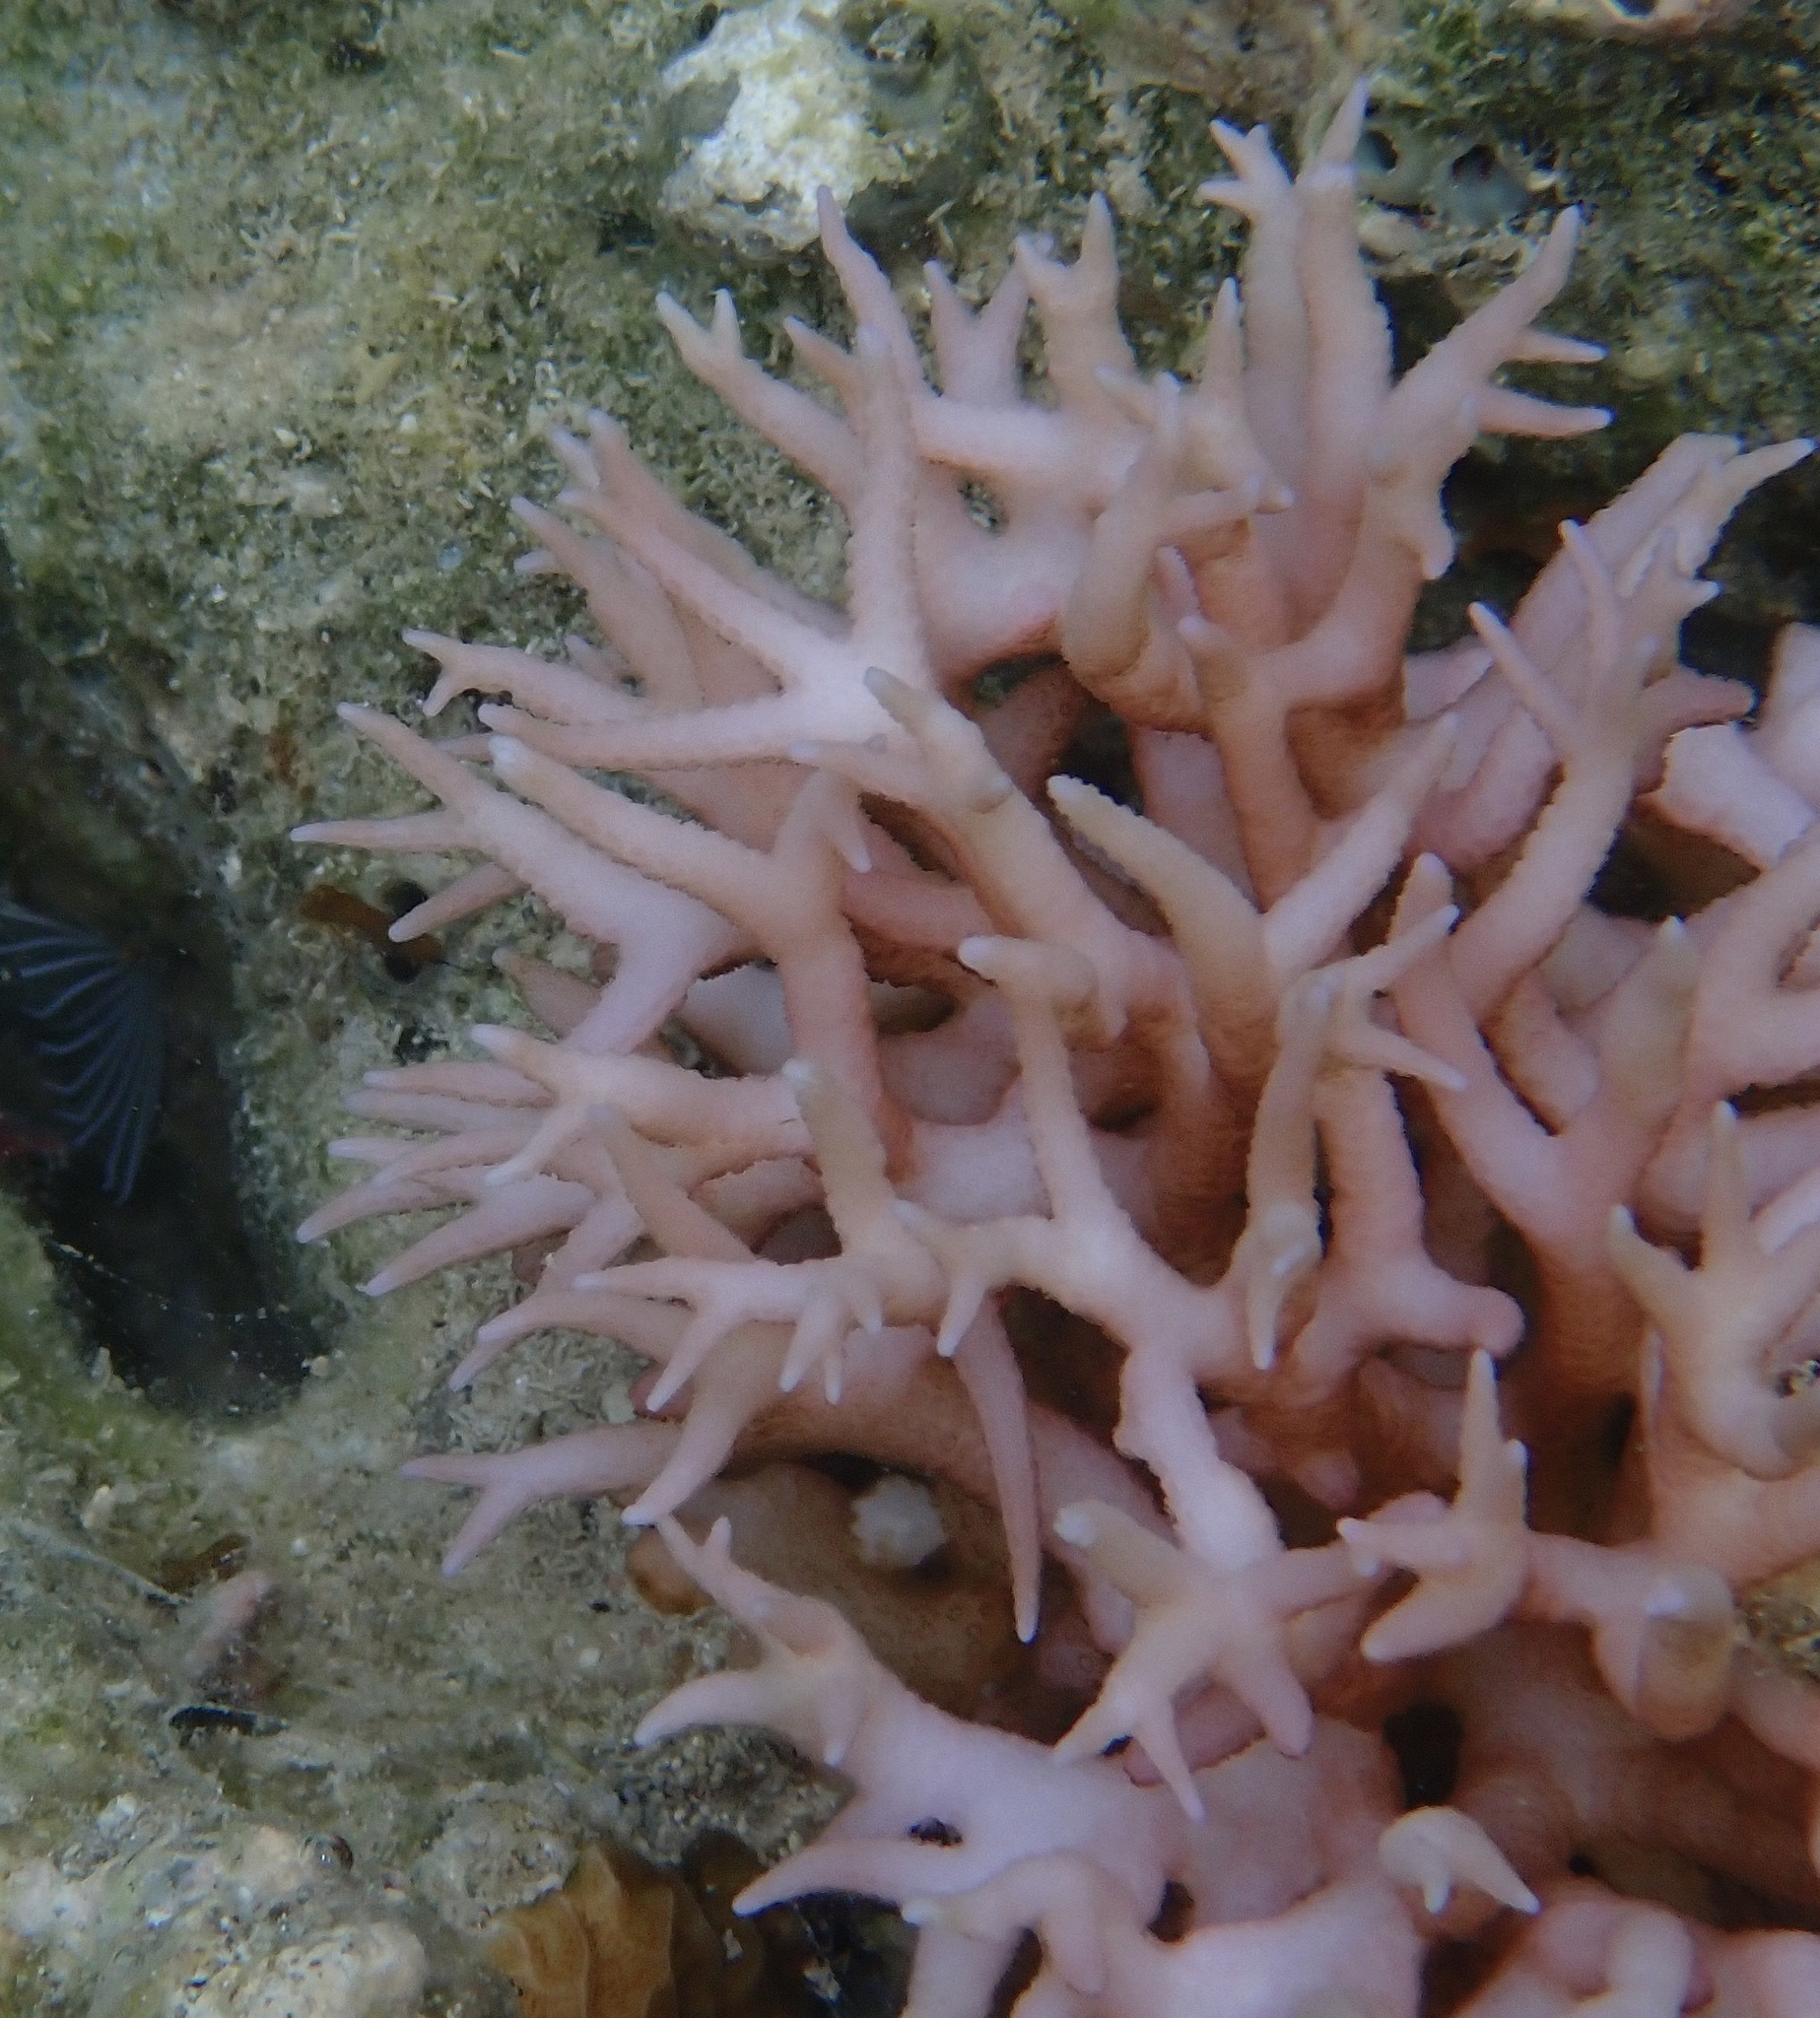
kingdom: Animalia
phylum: Cnidaria
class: Anthozoa
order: Scleractinia
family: Pocilloporidae
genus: Seriatopora
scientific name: Seriatopora hystrix
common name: Bush coral
